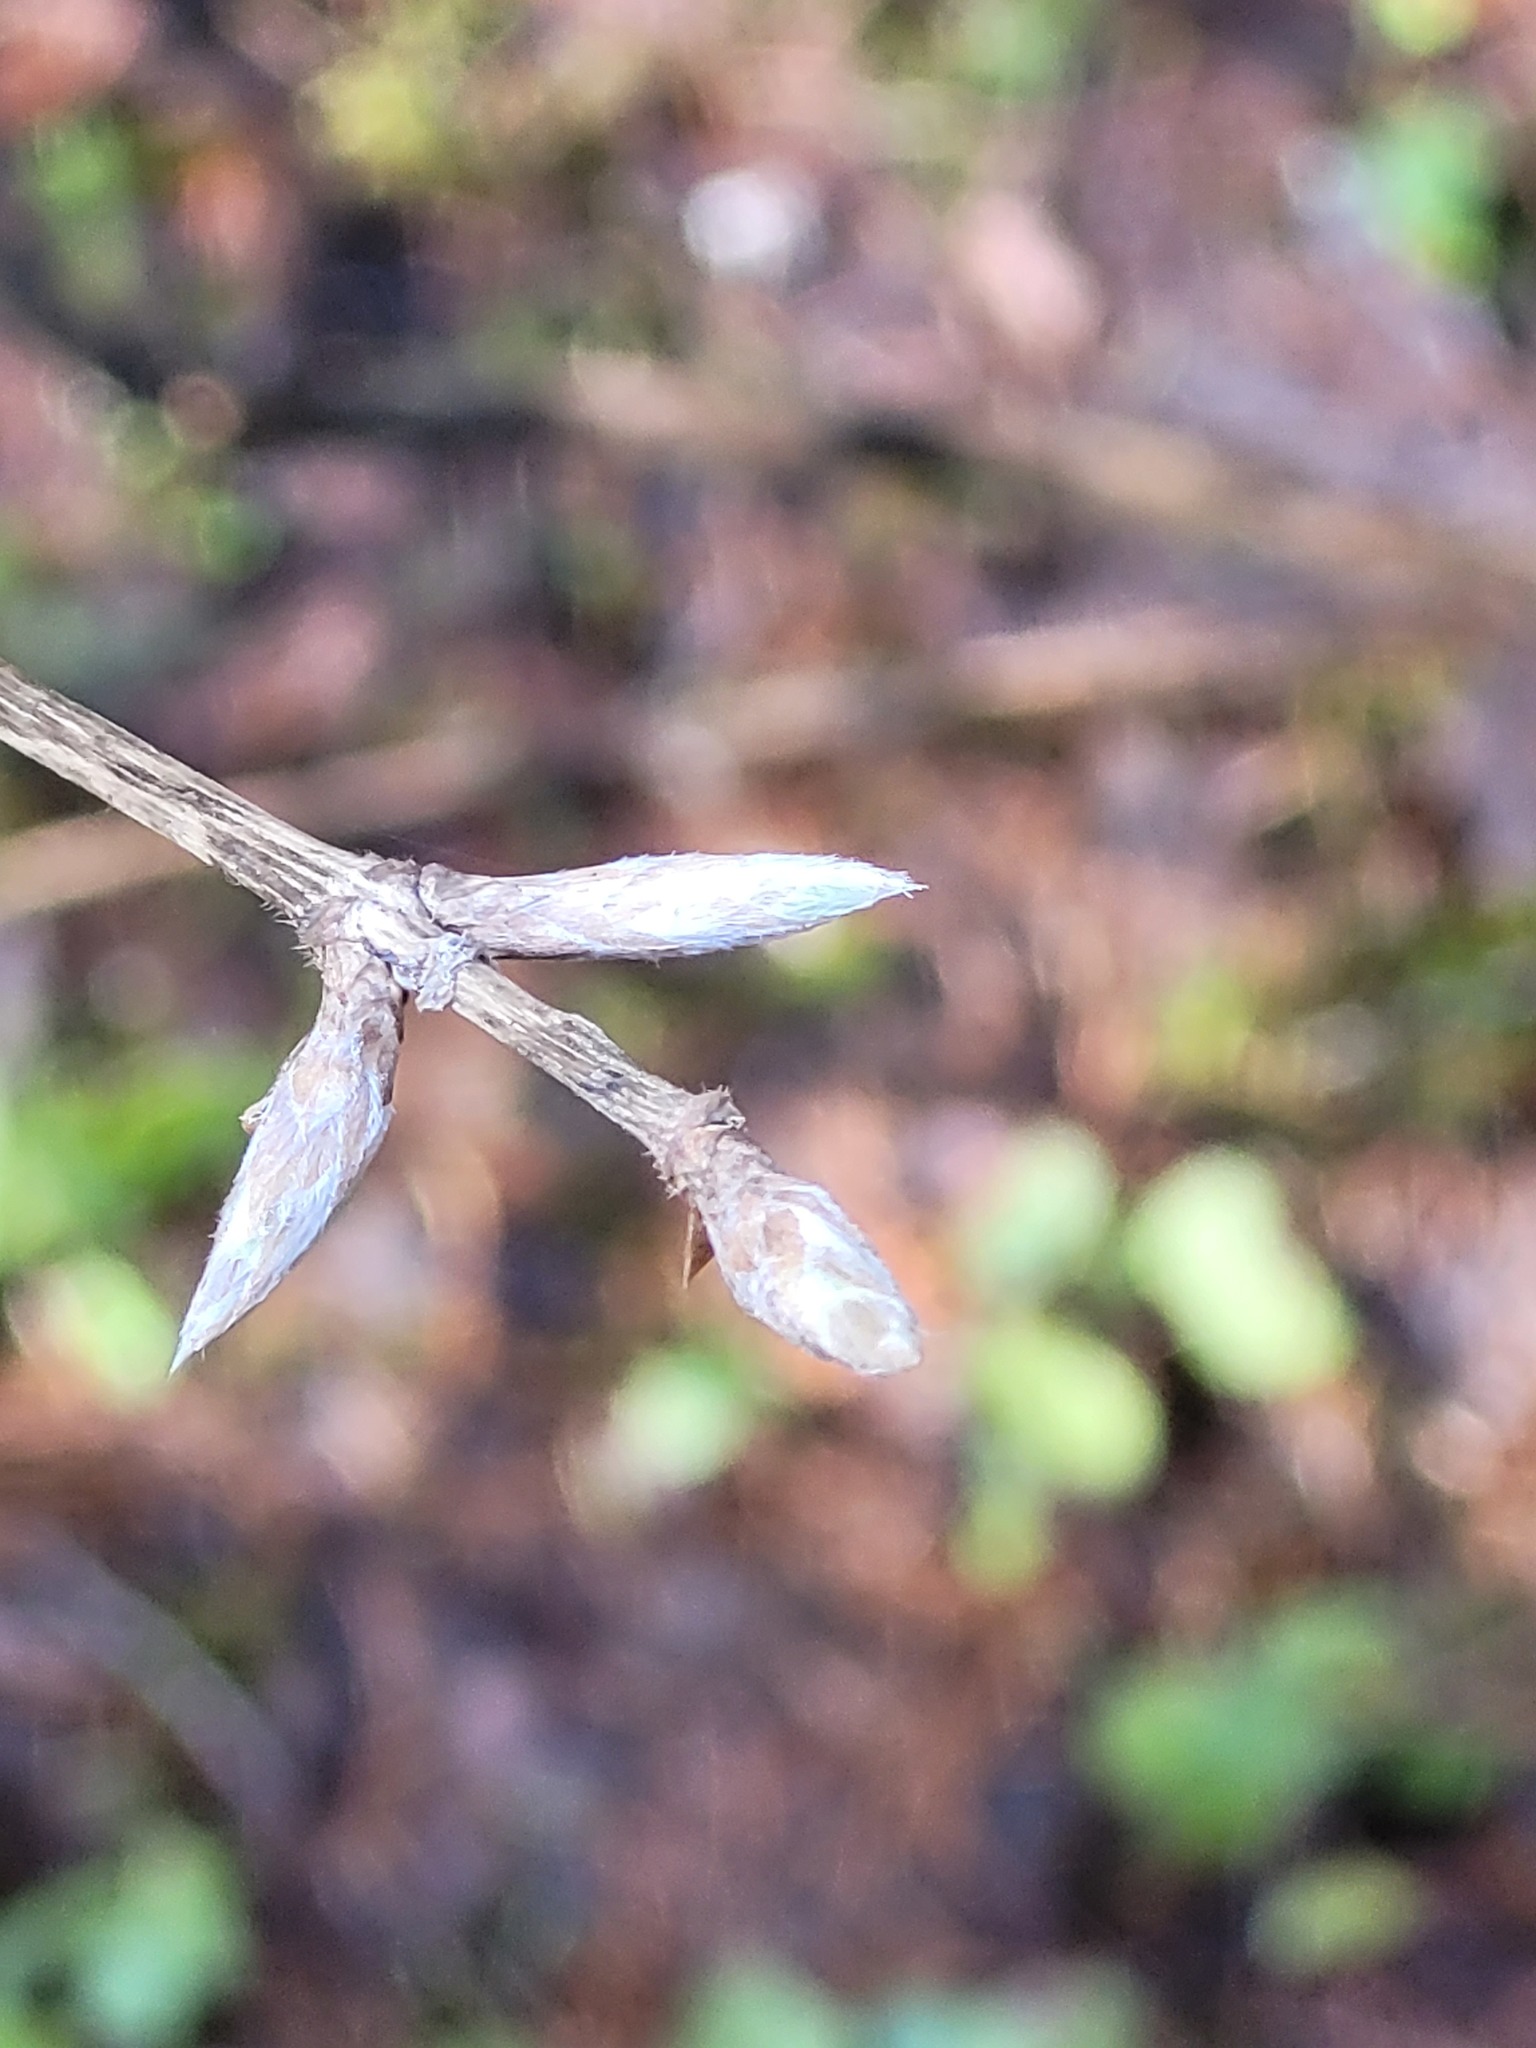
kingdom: Plantae
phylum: Tracheophyta
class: Magnoliopsida
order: Dipsacales
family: Caprifoliaceae
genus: Lonicera
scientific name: Lonicera xylosteum
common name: Fly honeysuckle
